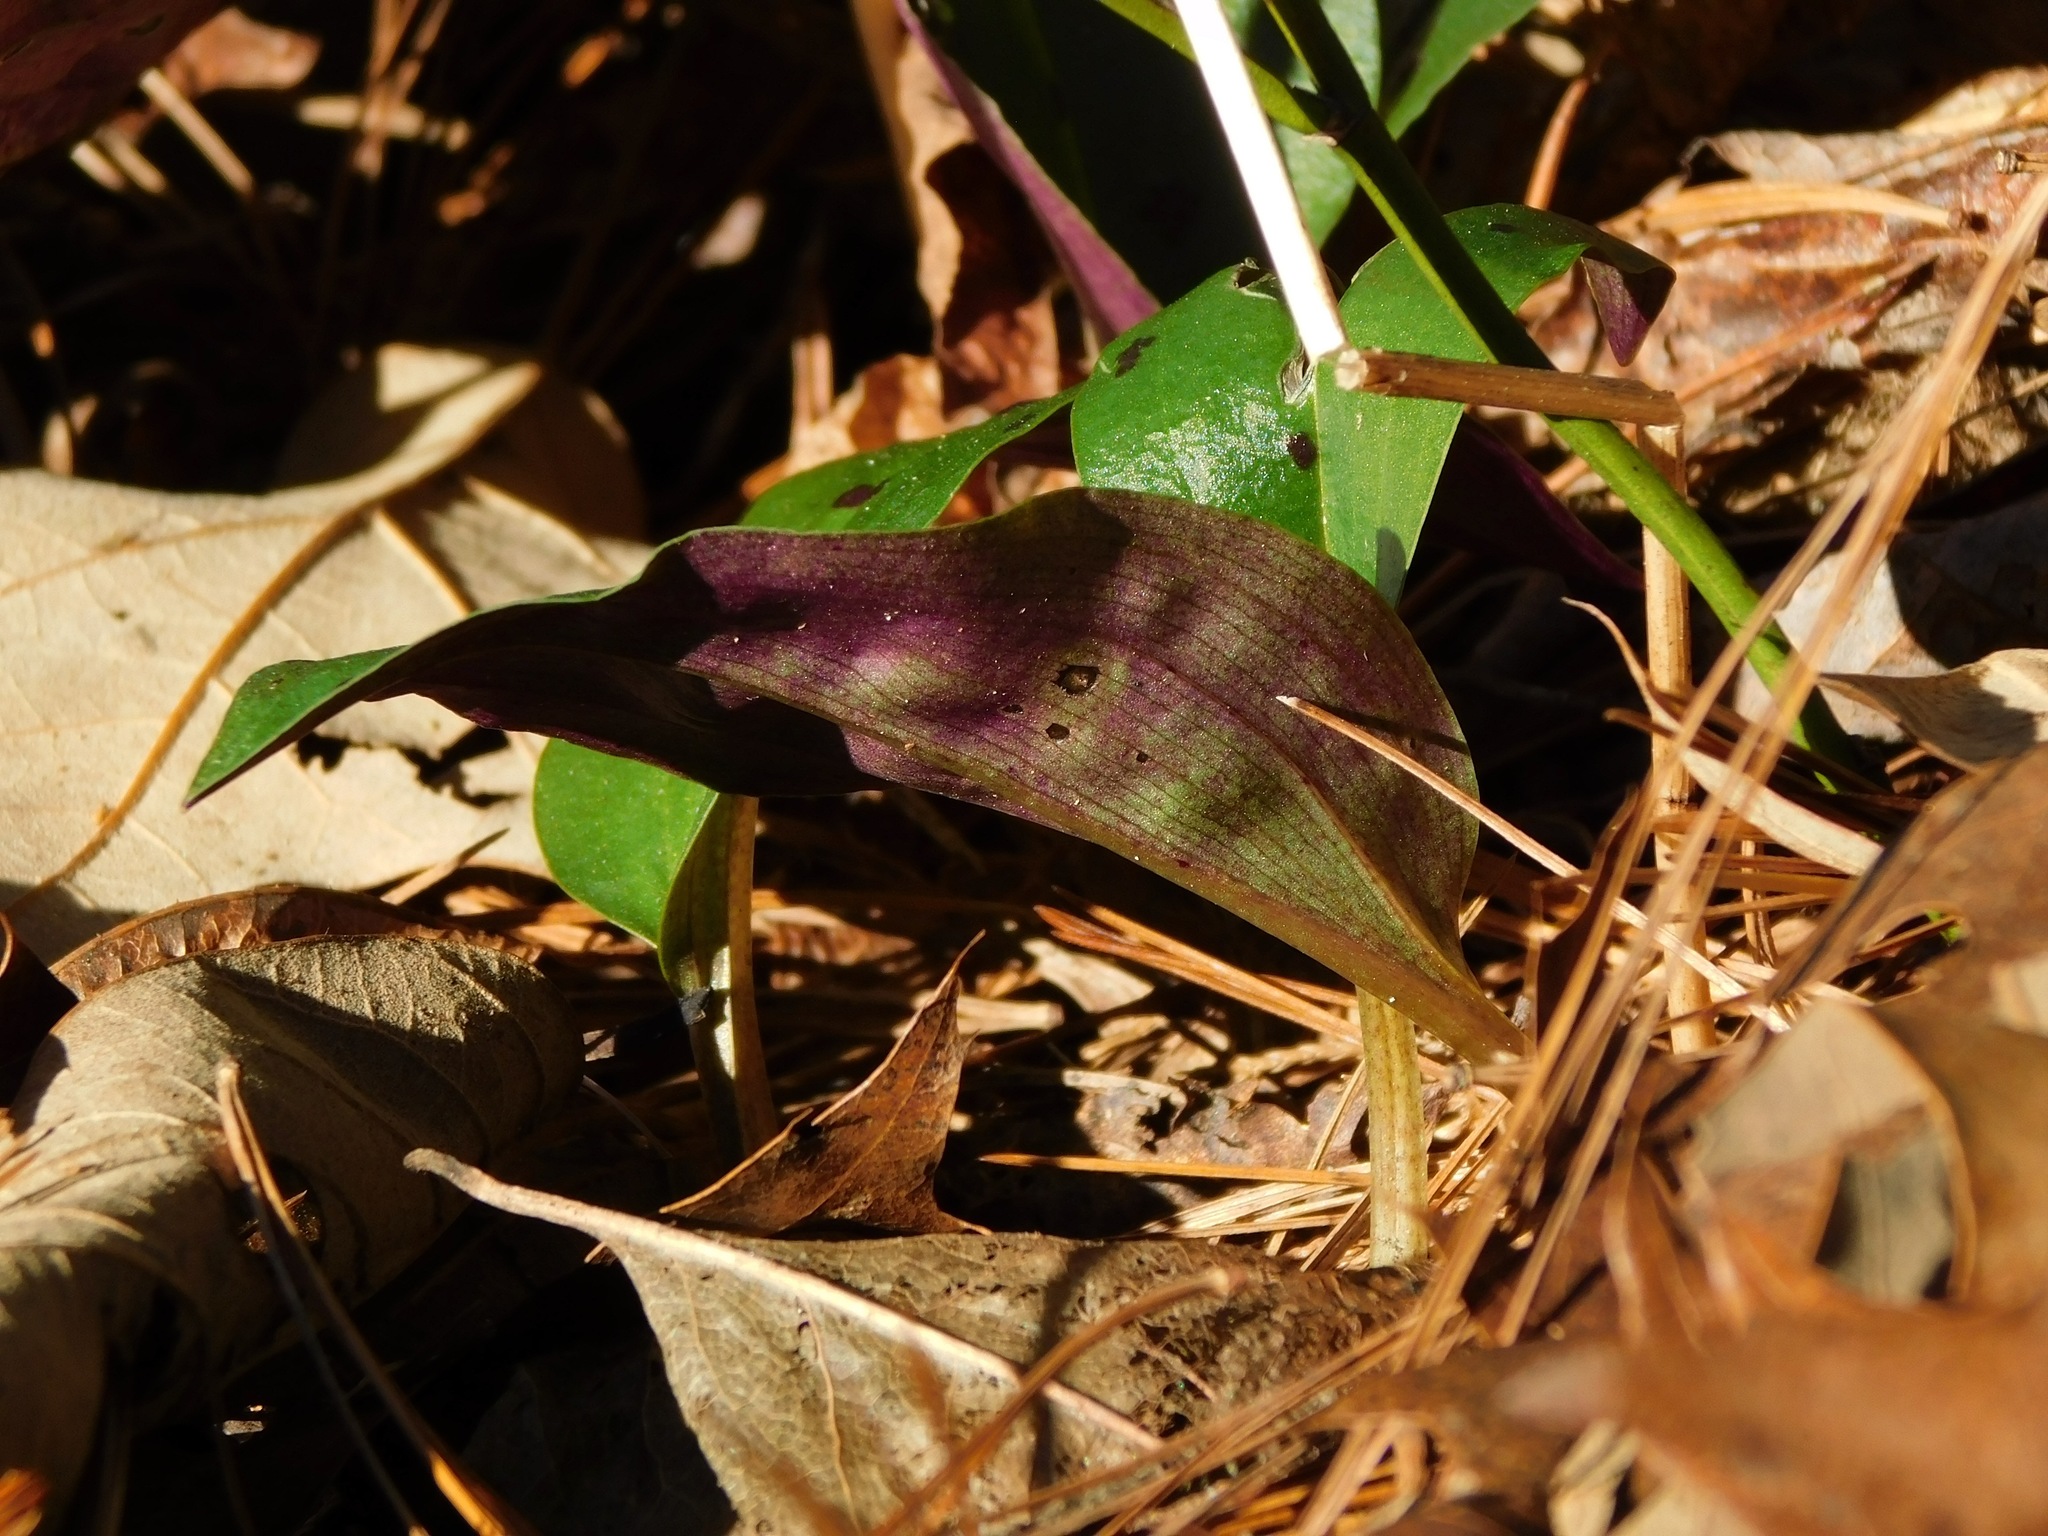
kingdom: Plantae
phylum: Tracheophyta
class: Liliopsida
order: Asparagales
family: Orchidaceae
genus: Tipularia
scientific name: Tipularia discolor
